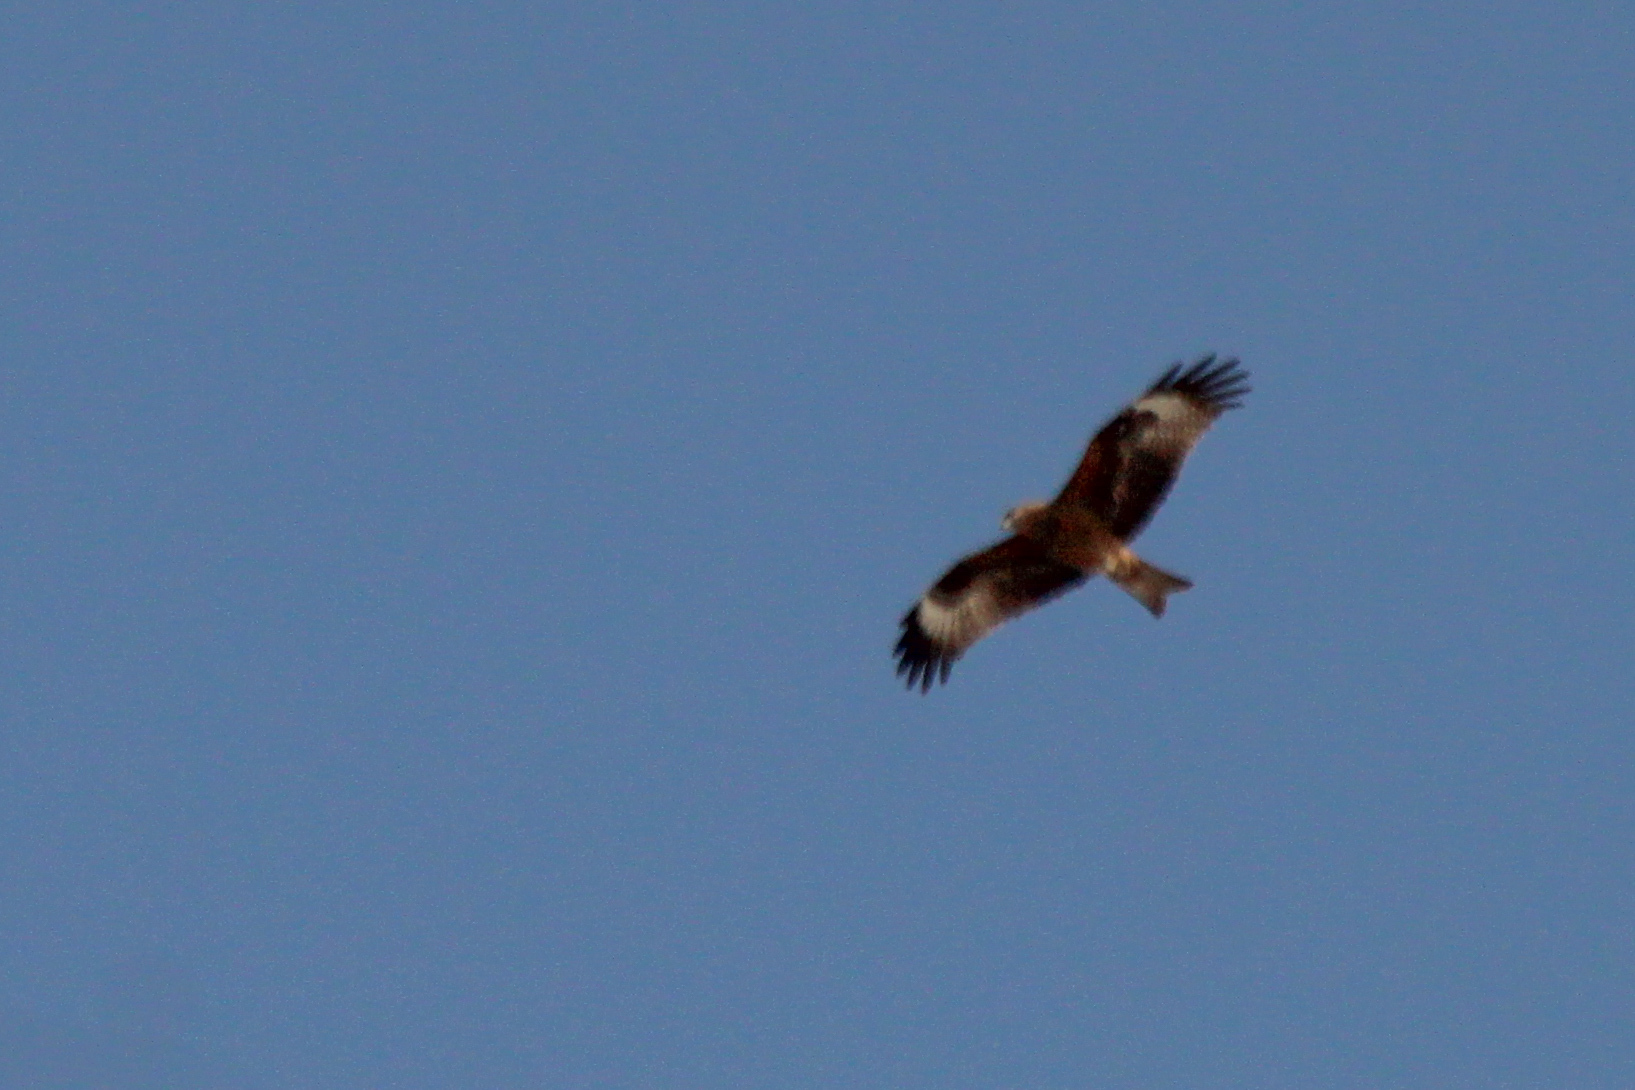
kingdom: Animalia
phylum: Chordata
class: Aves
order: Accipitriformes
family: Accipitridae
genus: Milvus
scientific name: Milvus migrans
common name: Black kite
